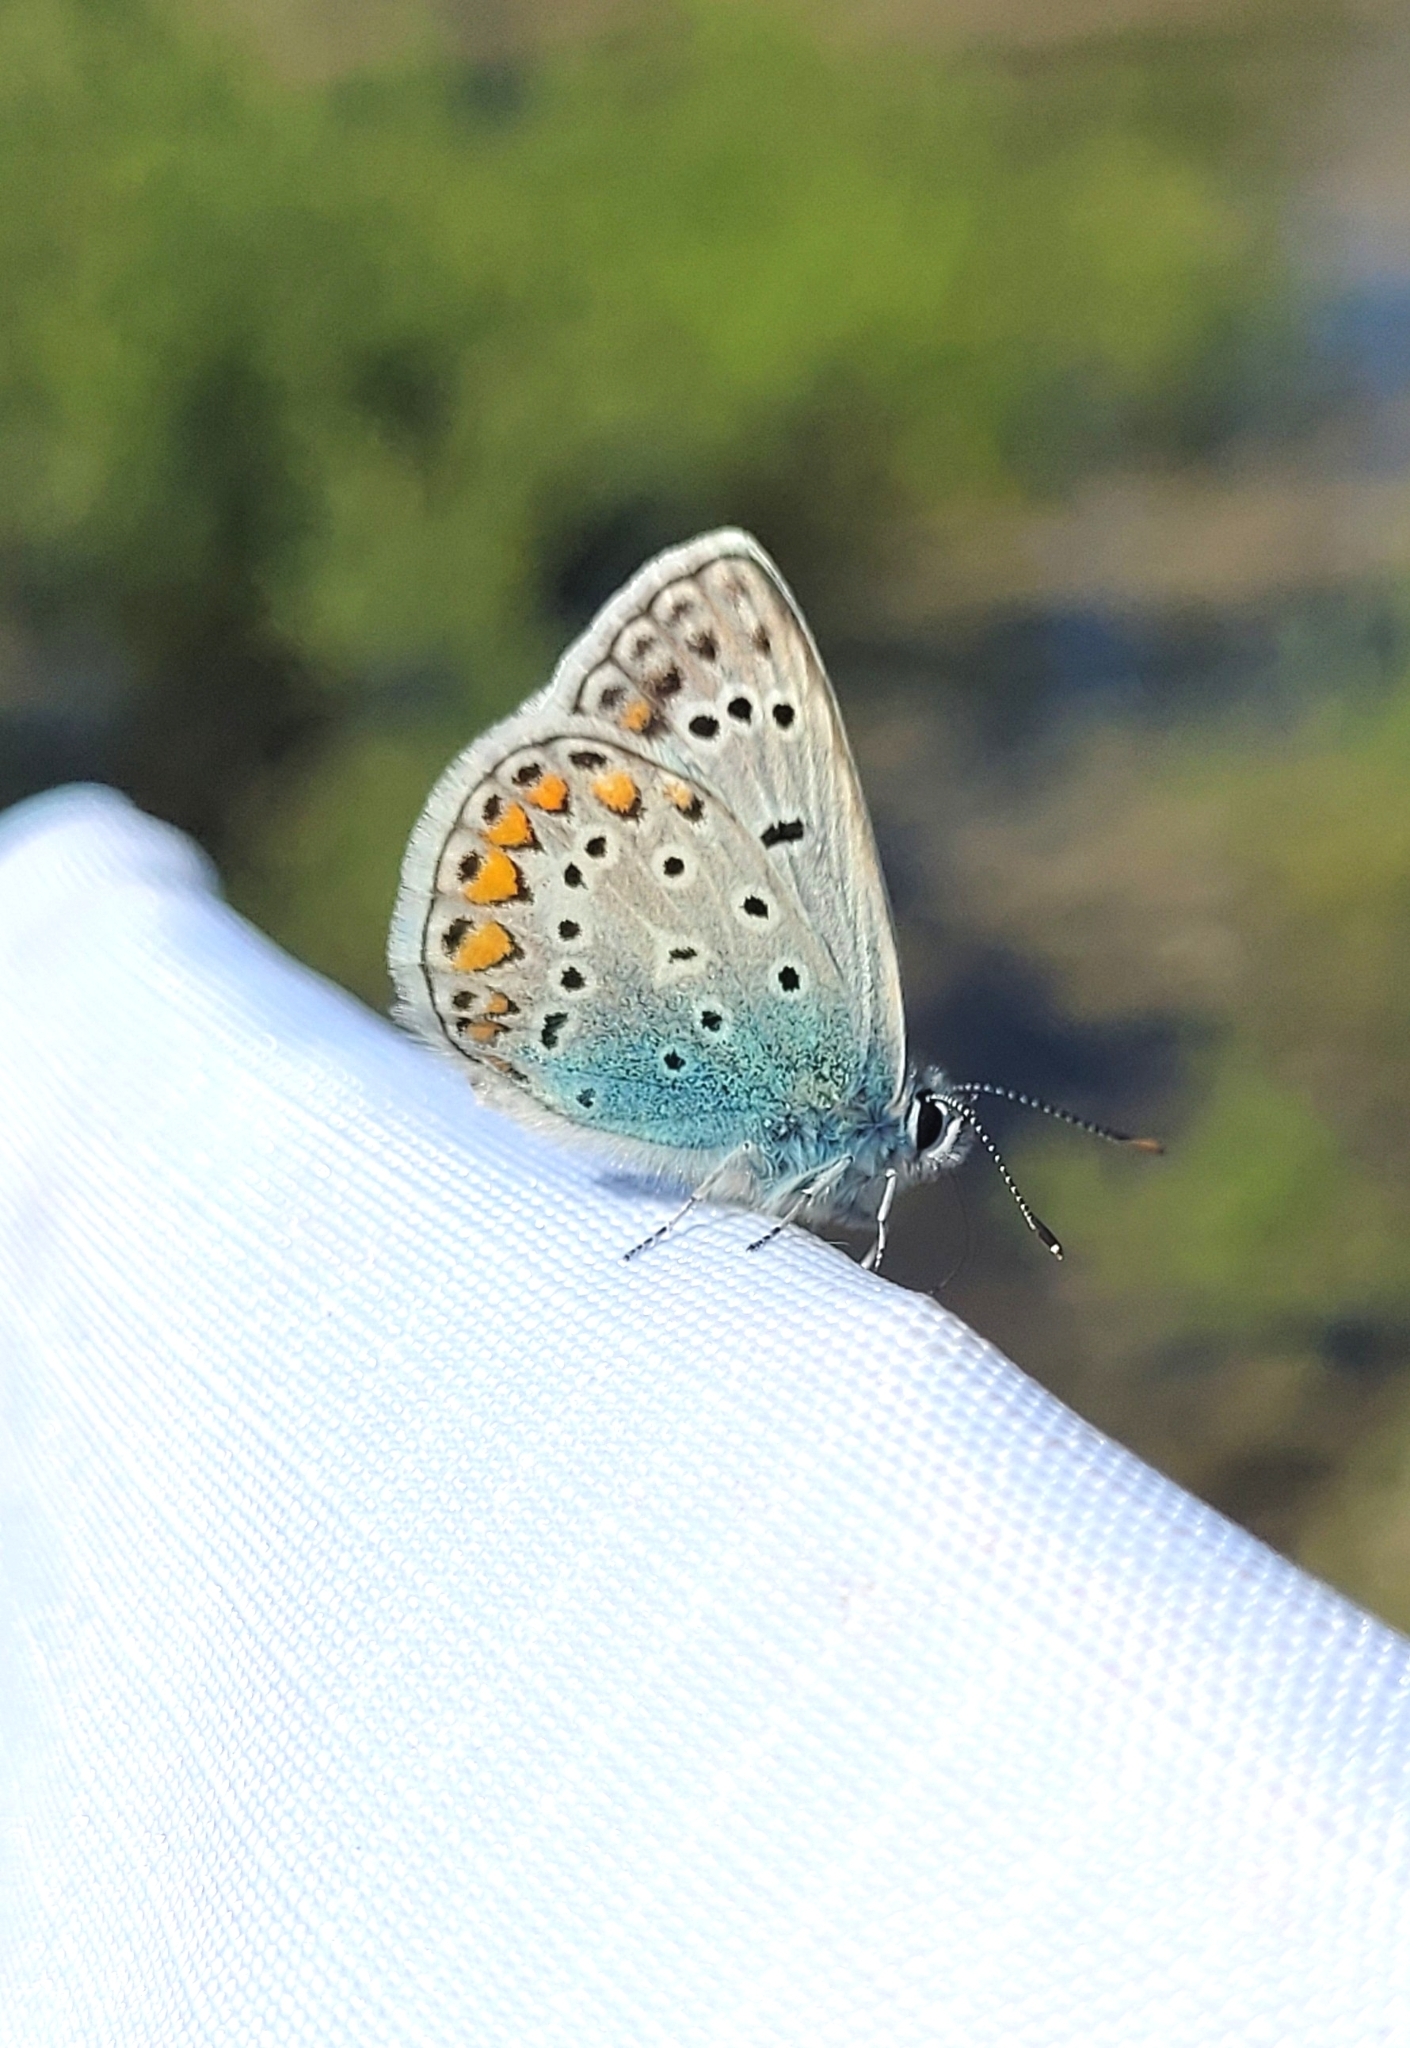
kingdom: Animalia
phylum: Arthropoda
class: Insecta
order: Lepidoptera
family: Lycaenidae
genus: Polyommatus
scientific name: Polyommatus icarus
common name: Common blue
